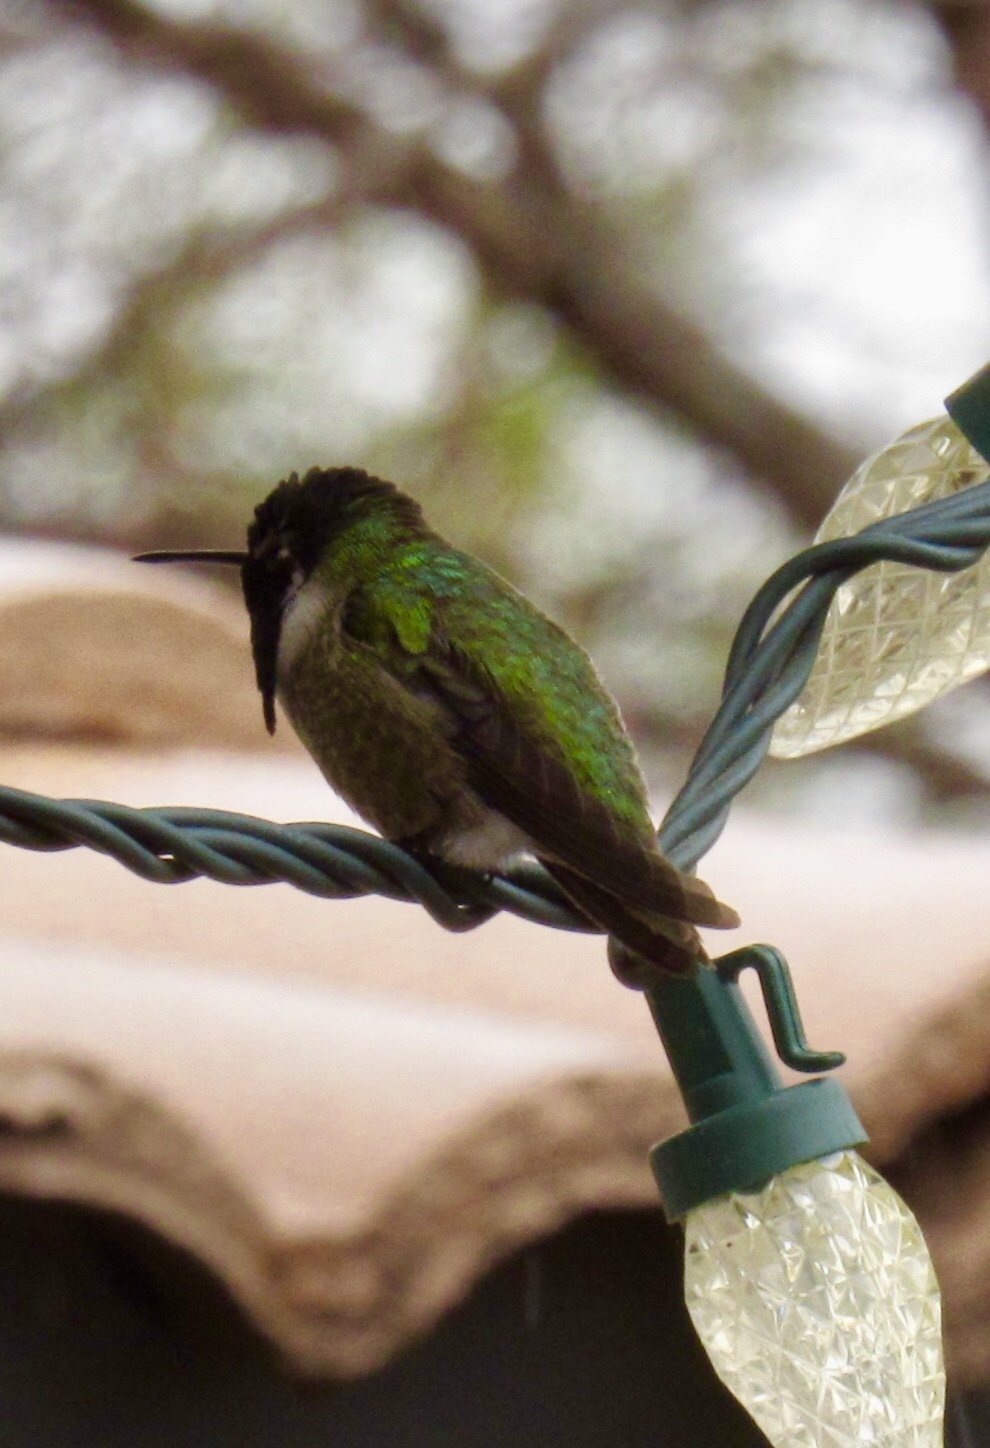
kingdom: Animalia
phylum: Chordata
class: Aves
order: Apodiformes
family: Trochilidae
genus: Calypte
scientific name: Calypte anna
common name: Anna's hummingbird
